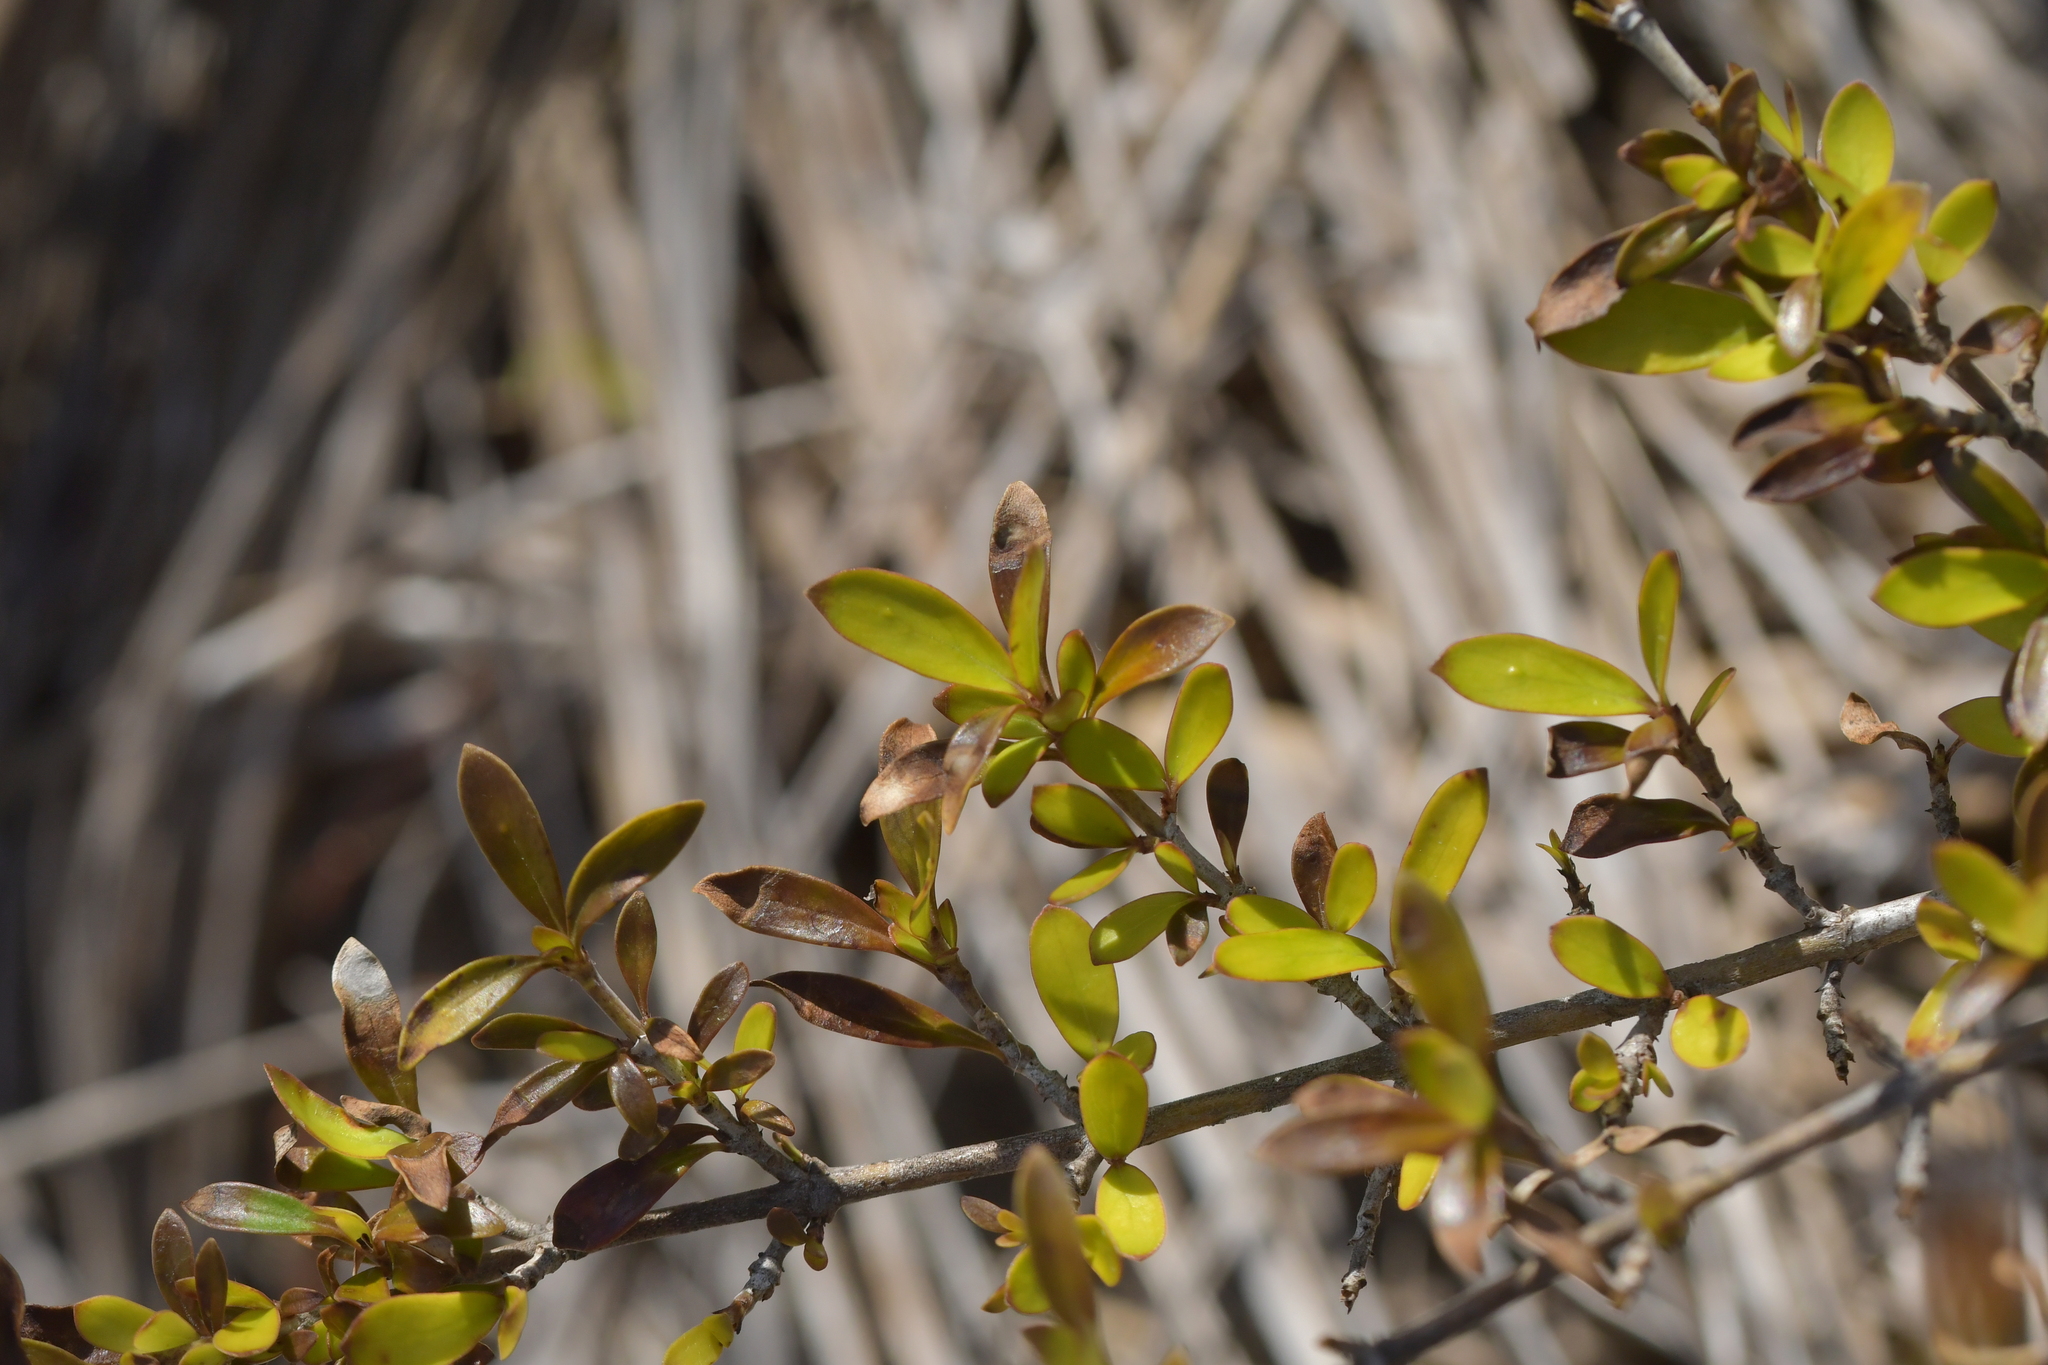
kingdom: Plantae
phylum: Tracheophyta
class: Magnoliopsida
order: Gentianales
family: Rubiaceae
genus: Coprosma
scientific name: Coprosma propinqua
